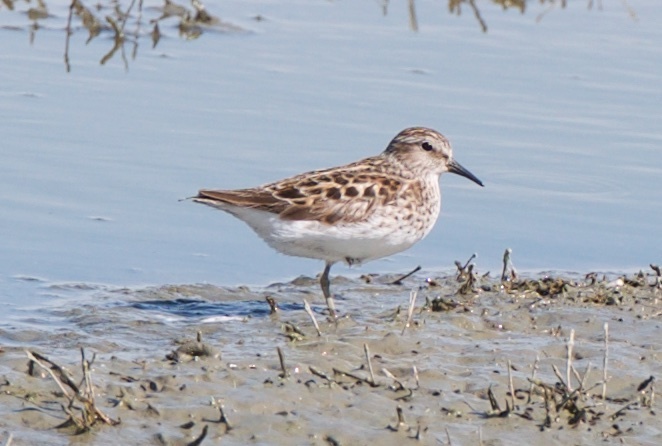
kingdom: Animalia
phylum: Chordata
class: Aves
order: Charadriiformes
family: Scolopacidae
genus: Calidris
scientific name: Calidris minutilla
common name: Least sandpiper
